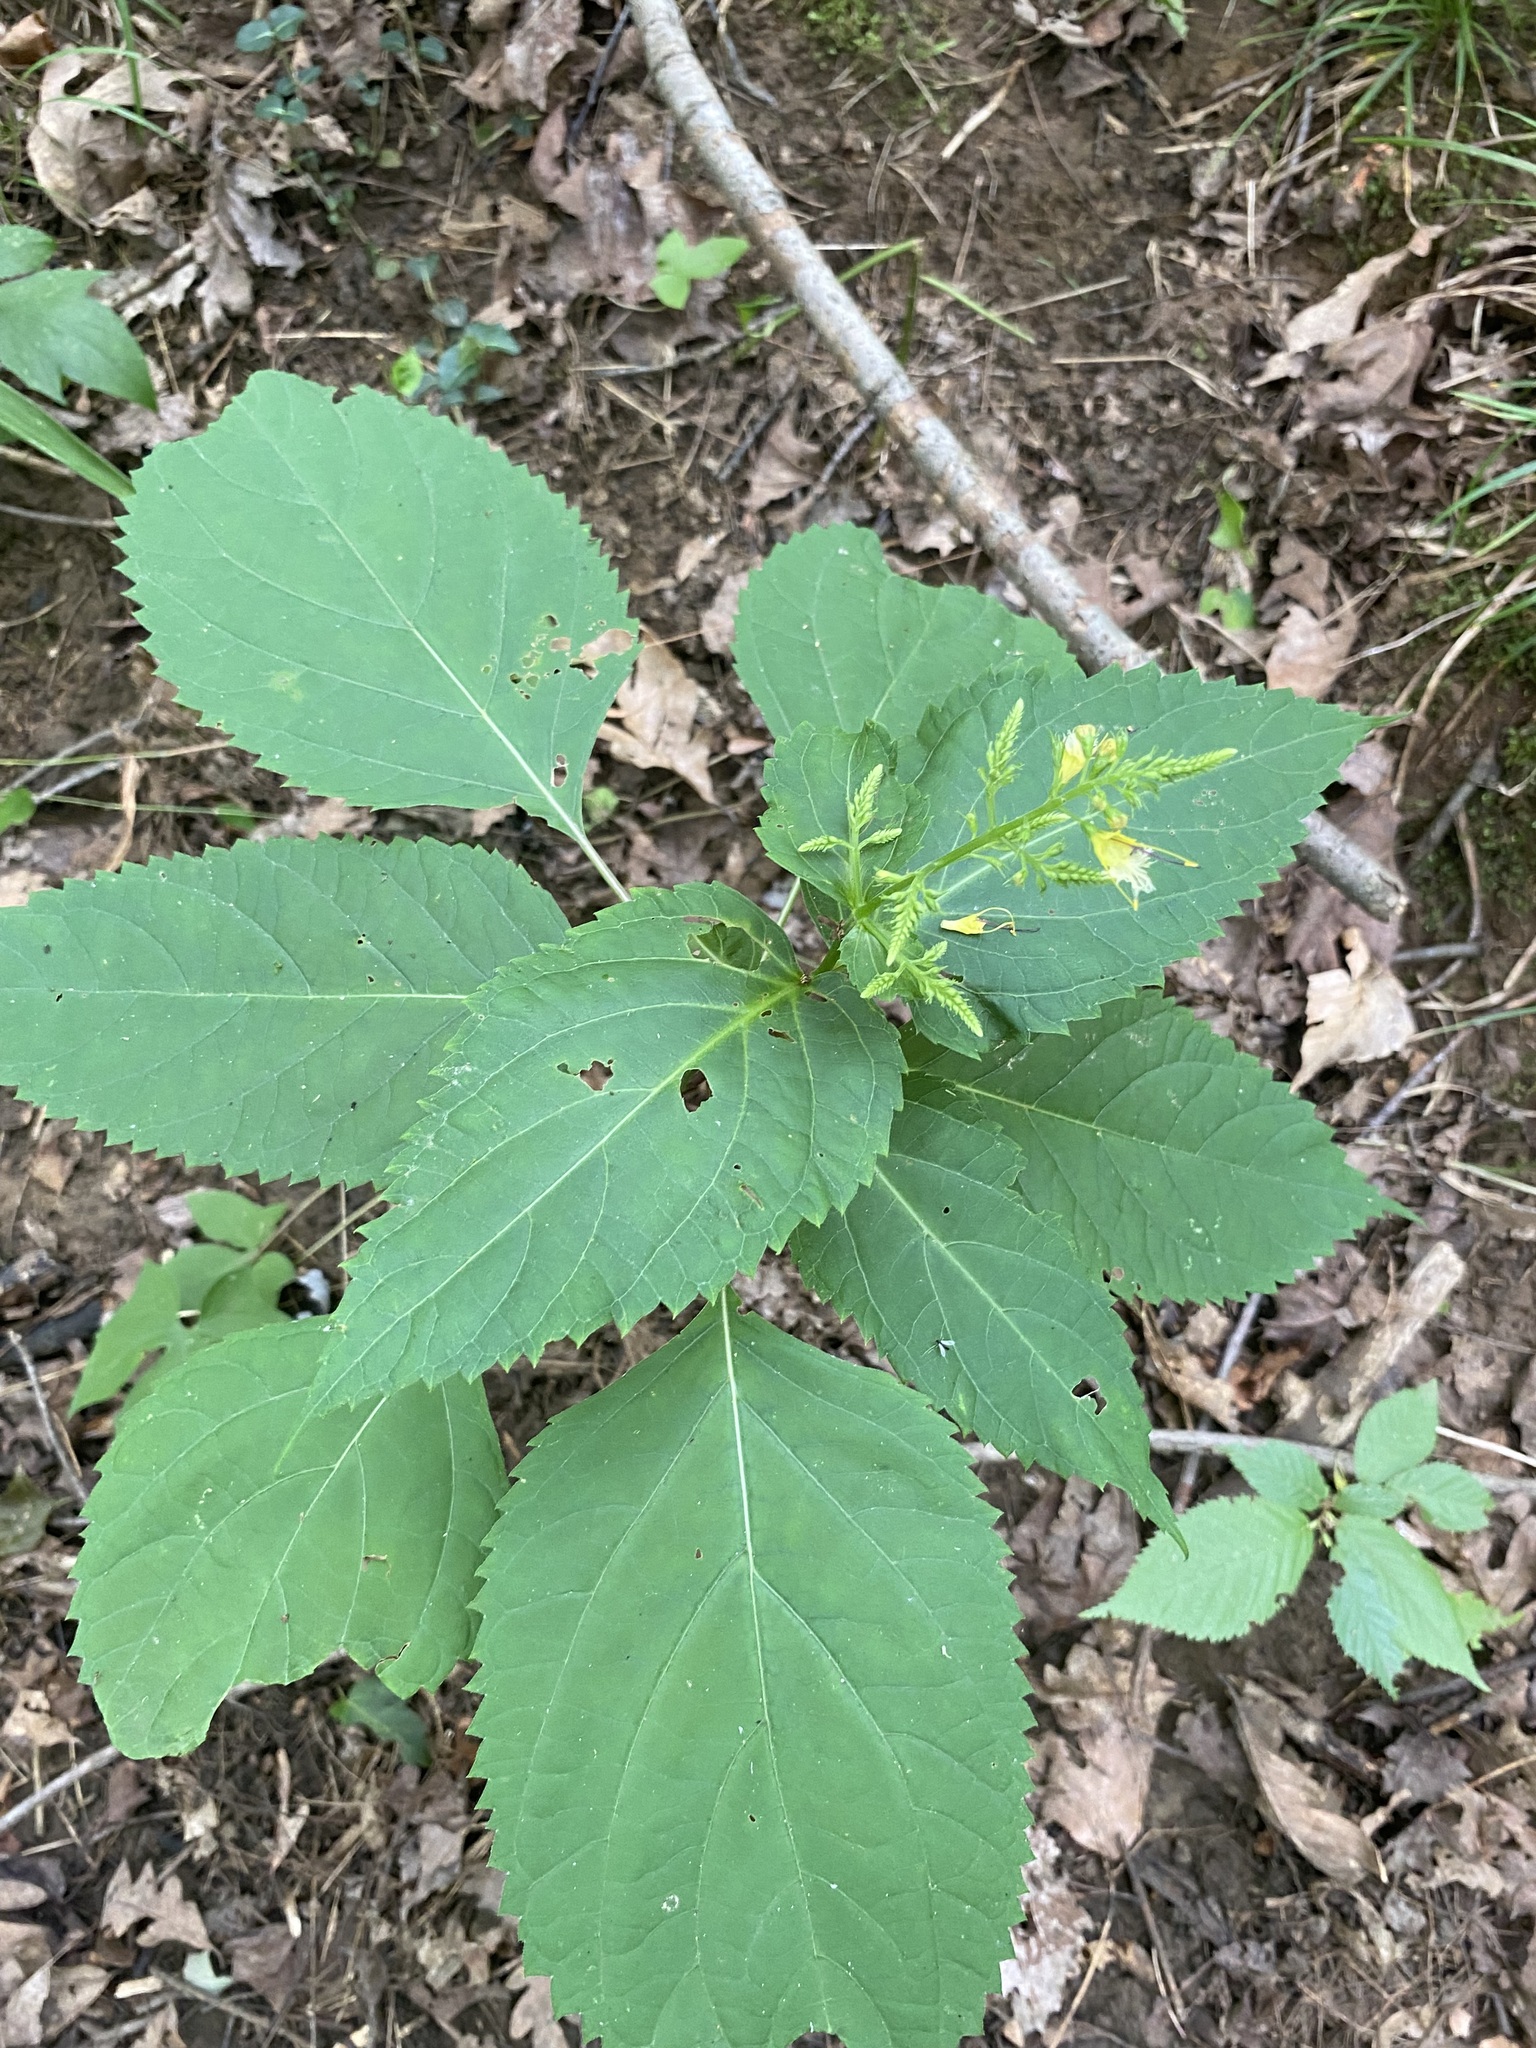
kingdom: Plantae
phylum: Tracheophyta
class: Magnoliopsida
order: Lamiales
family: Lamiaceae
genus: Collinsonia
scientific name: Collinsonia canadensis
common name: Northern horsebalm
